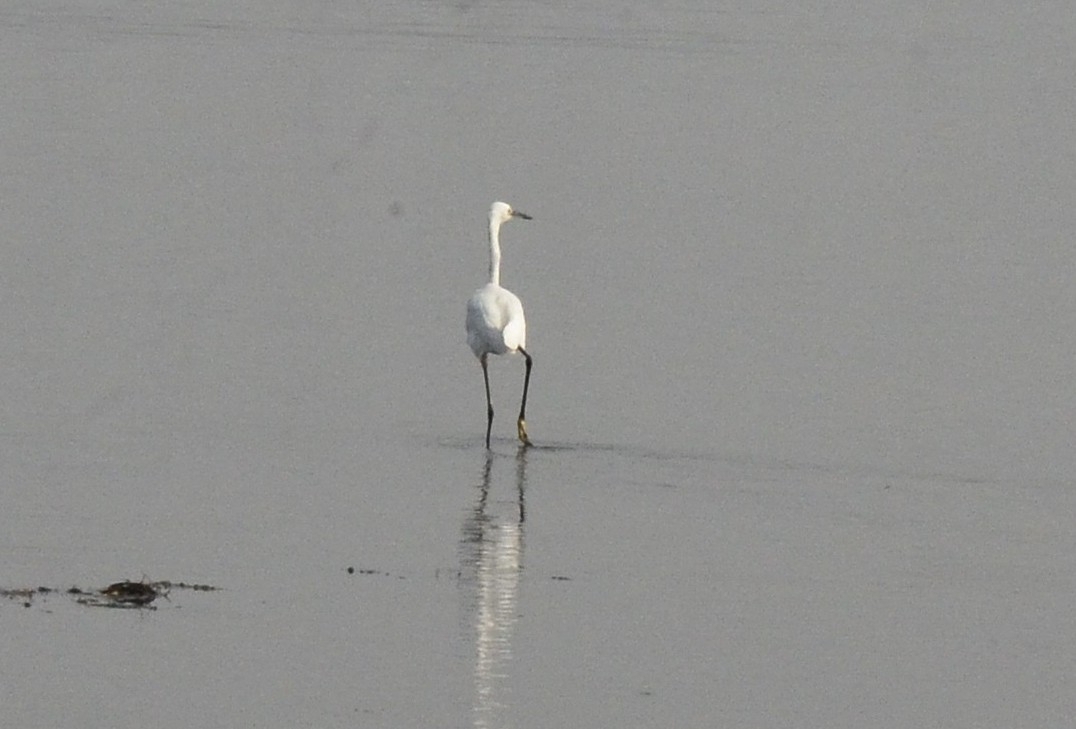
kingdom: Animalia
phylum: Chordata
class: Aves
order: Pelecaniformes
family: Ardeidae
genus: Egretta
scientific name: Egretta garzetta
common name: Little egret
